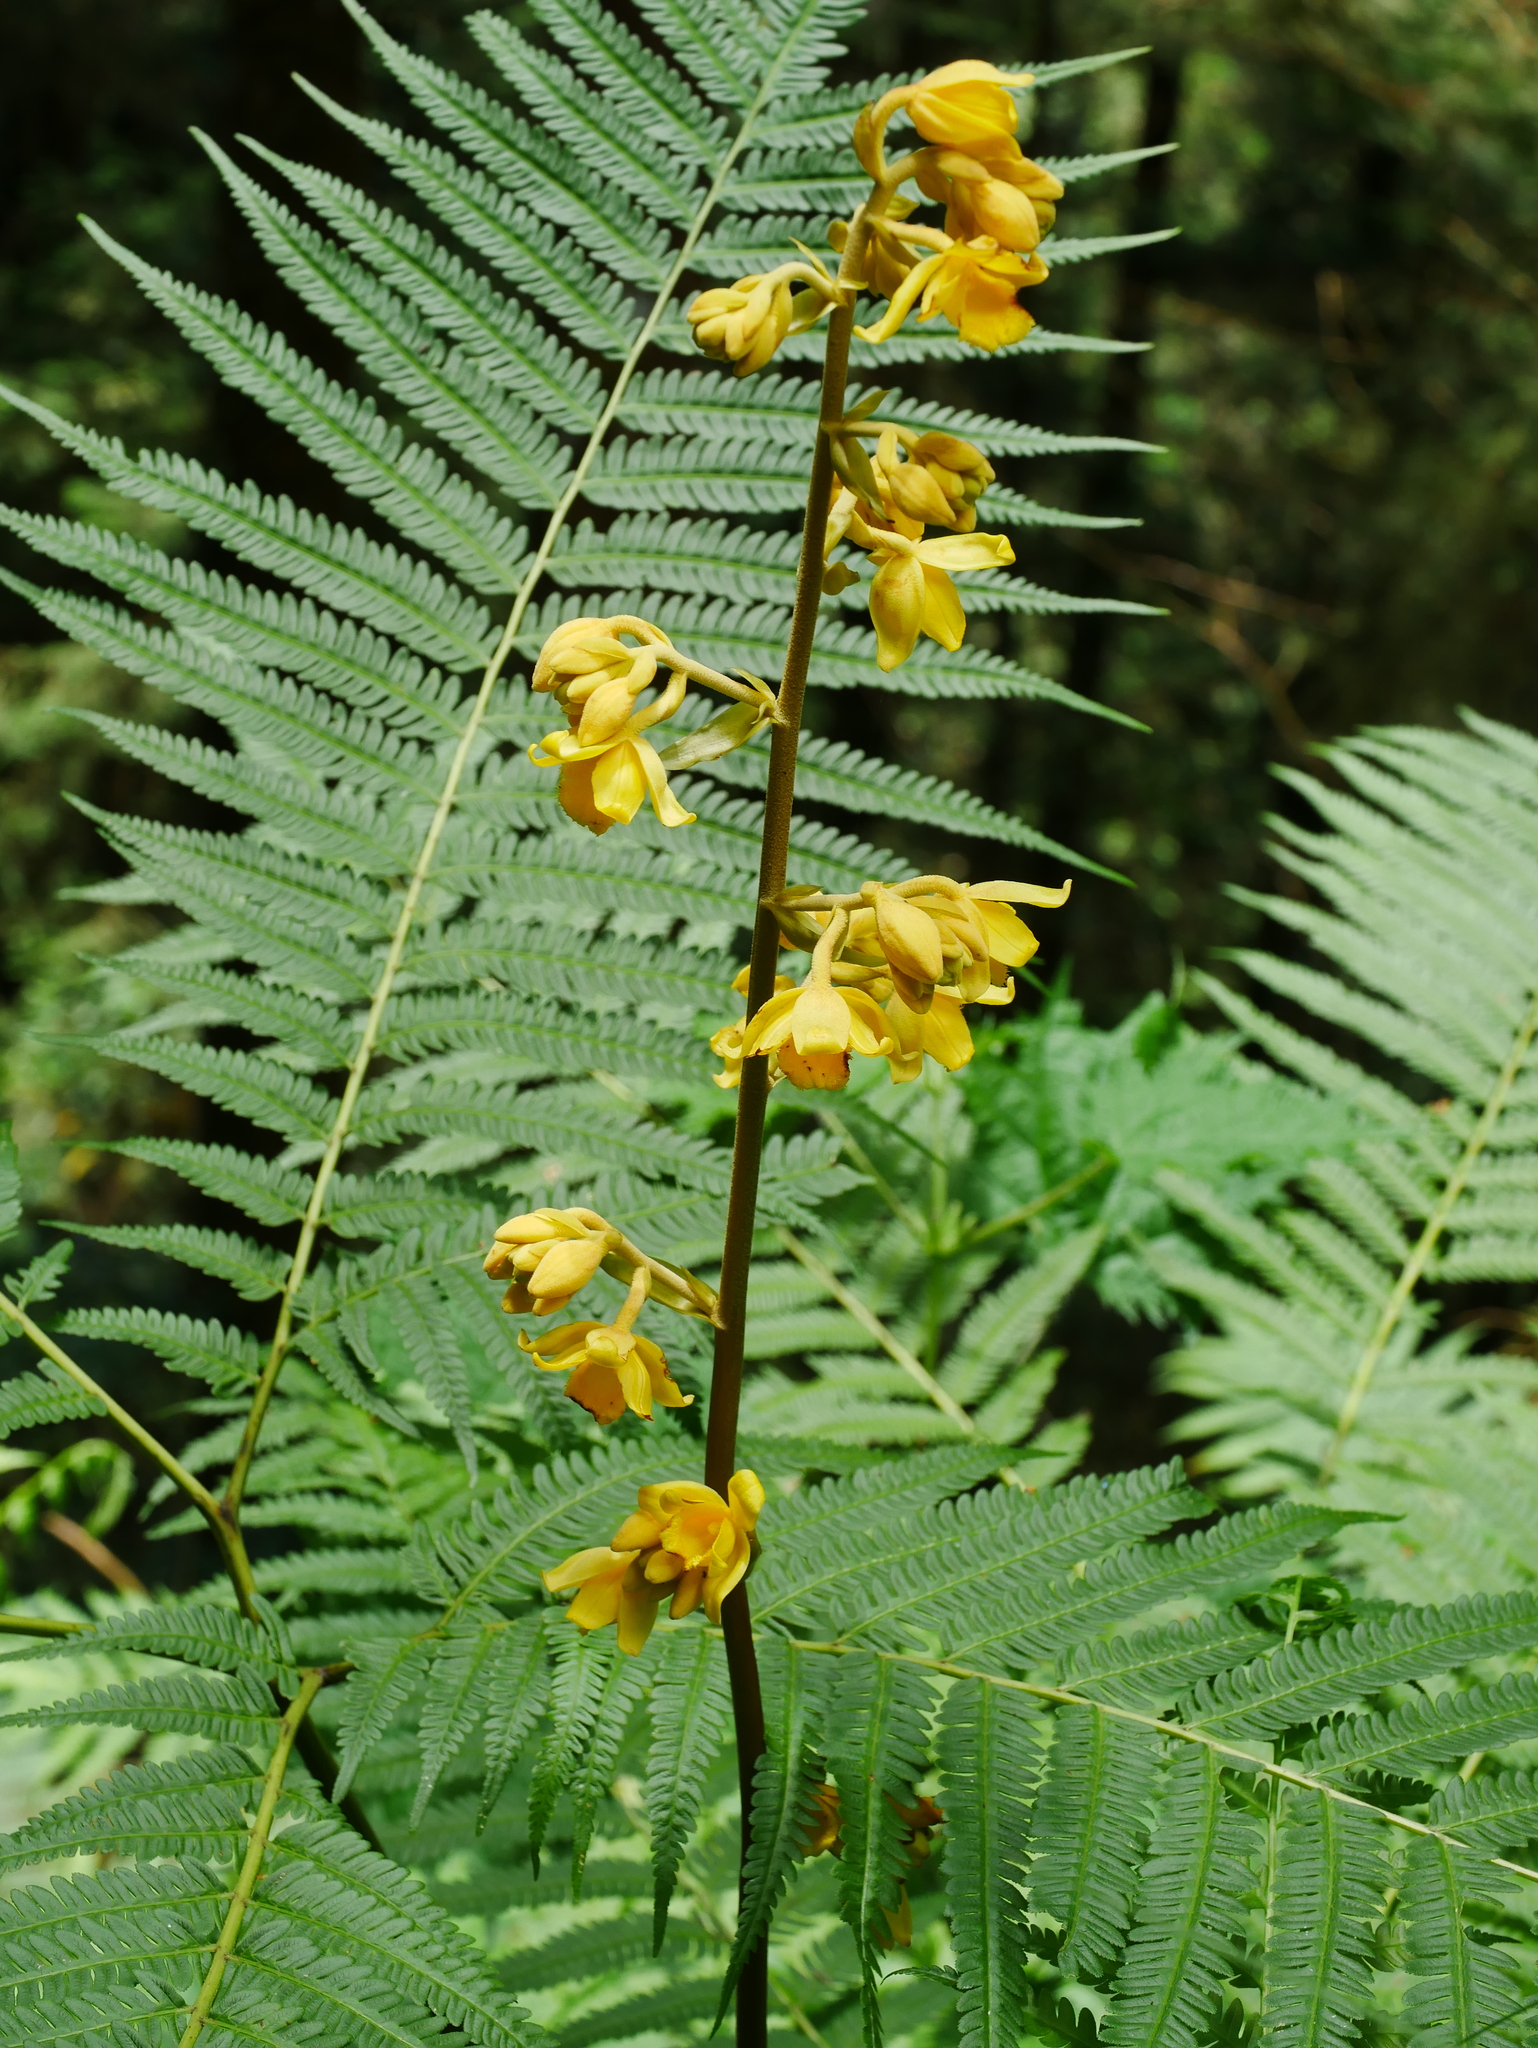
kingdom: Plantae
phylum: Tracheophyta
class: Liliopsida
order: Asparagales
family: Orchidaceae
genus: Cyrtosia
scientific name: Cyrtosia falconeri
